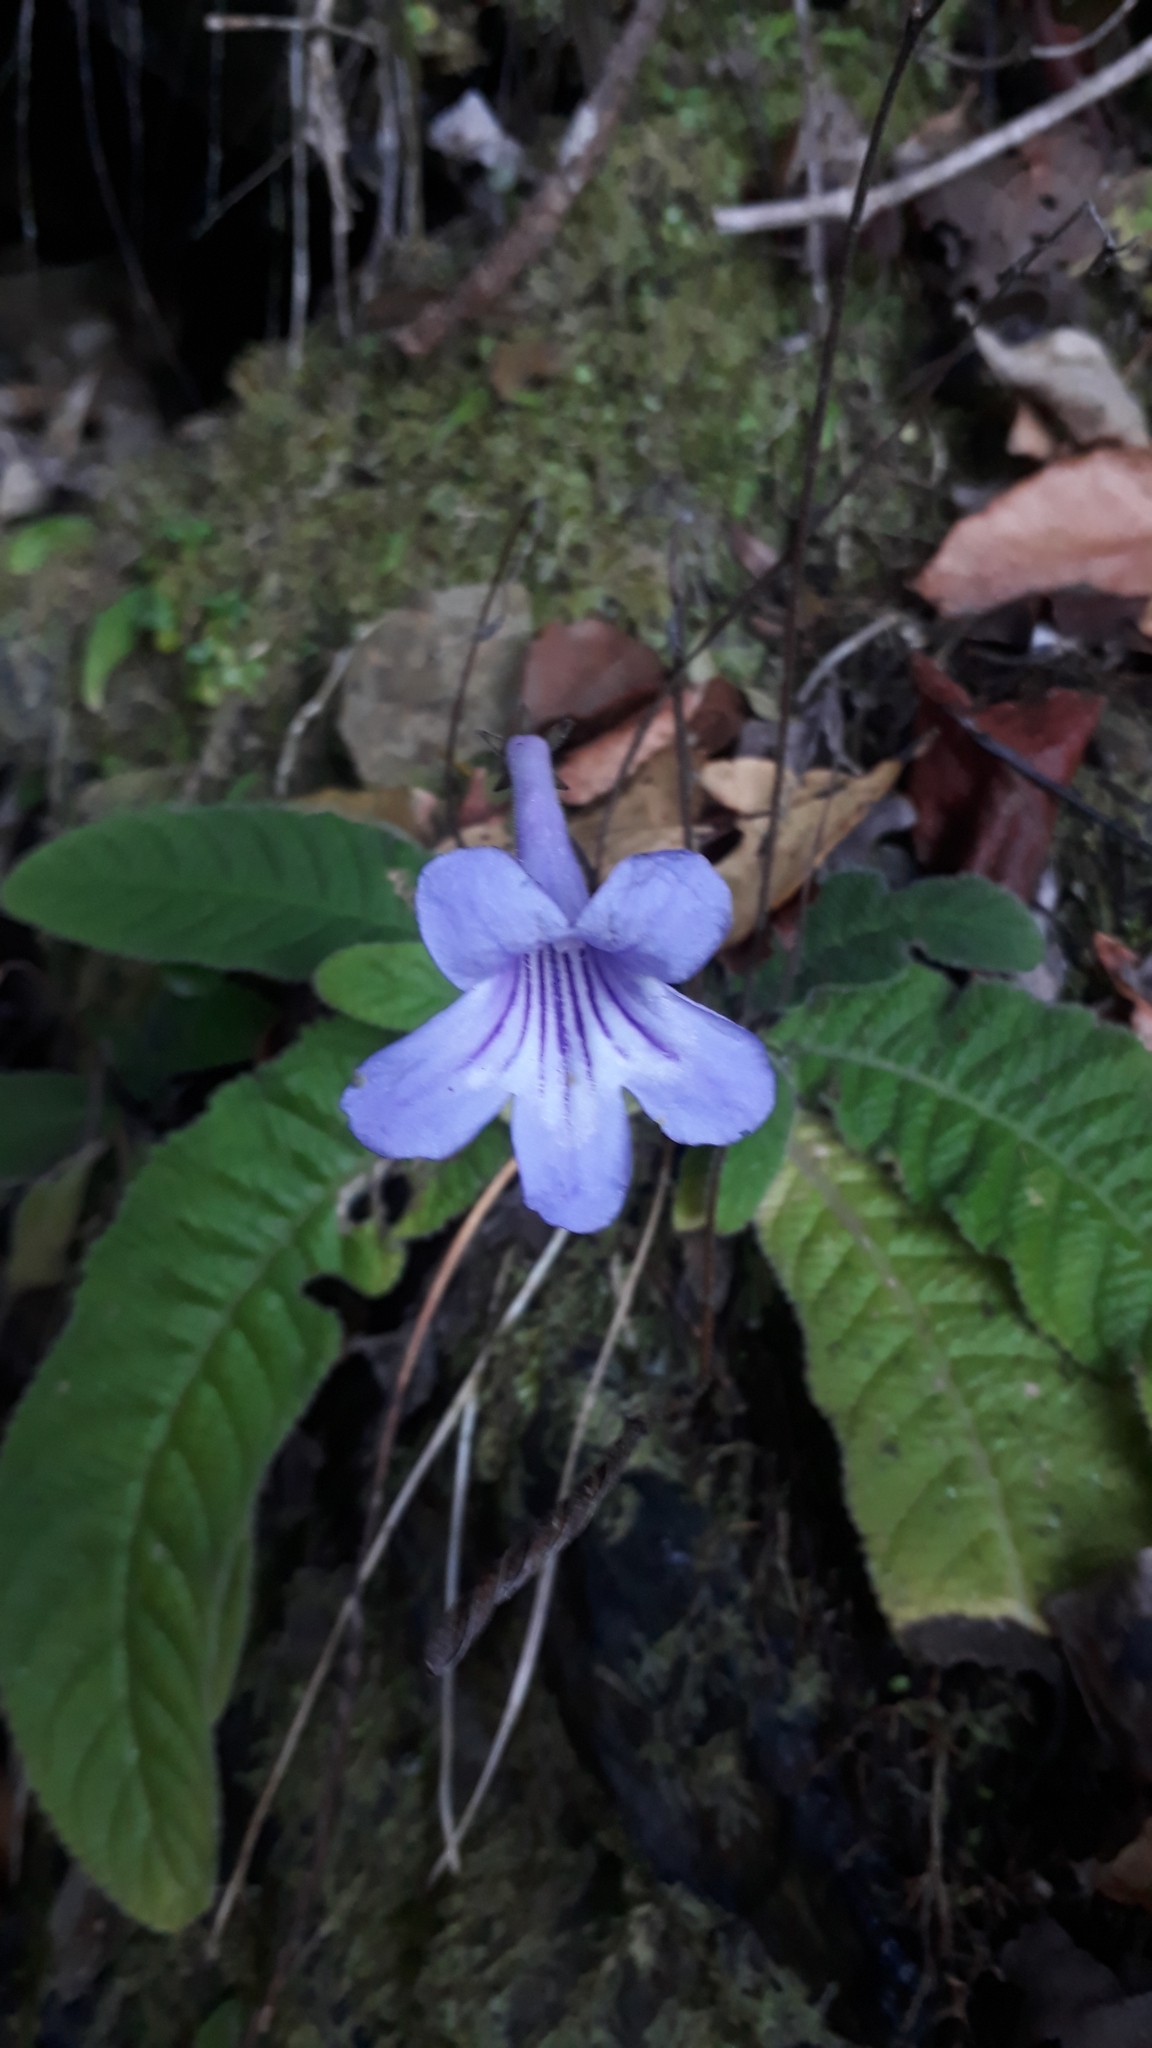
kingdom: Plantae
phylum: Tracheophyta
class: Magnoliopsida
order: Lamiales
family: Gesneriaceae
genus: Streptocarpus
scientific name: Streptocarpus rexii
